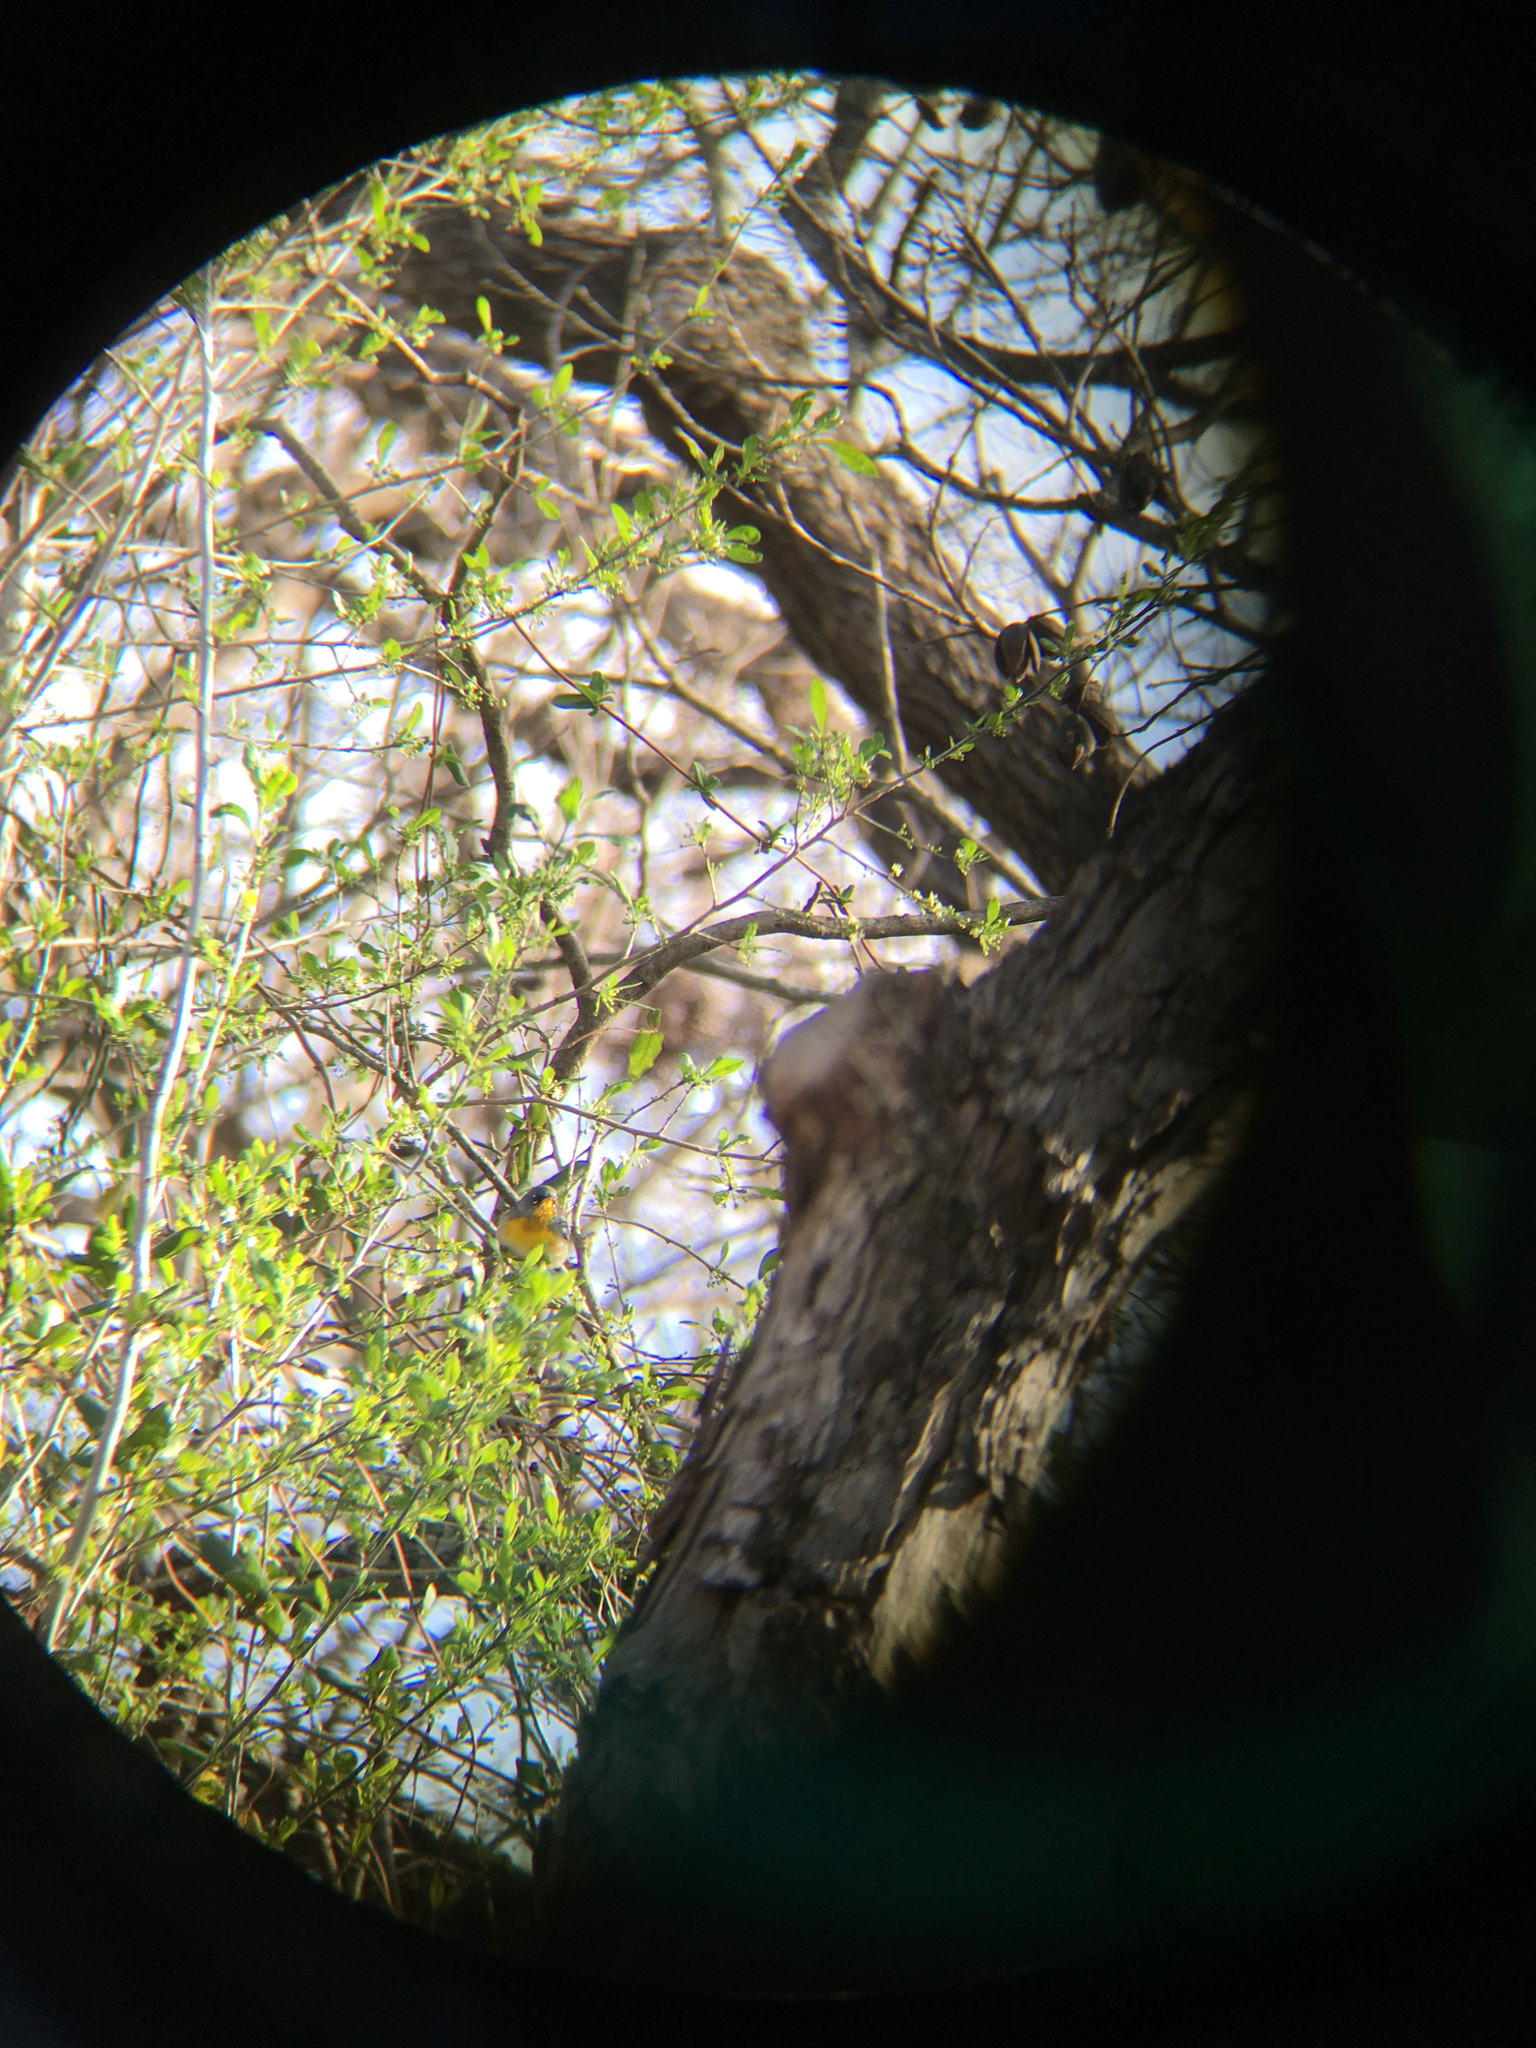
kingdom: Animalia
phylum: Chordata
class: Aves
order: Passeriformes
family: Parulidae
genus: Setophaga
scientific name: Setophaga americana
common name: Northern parula
